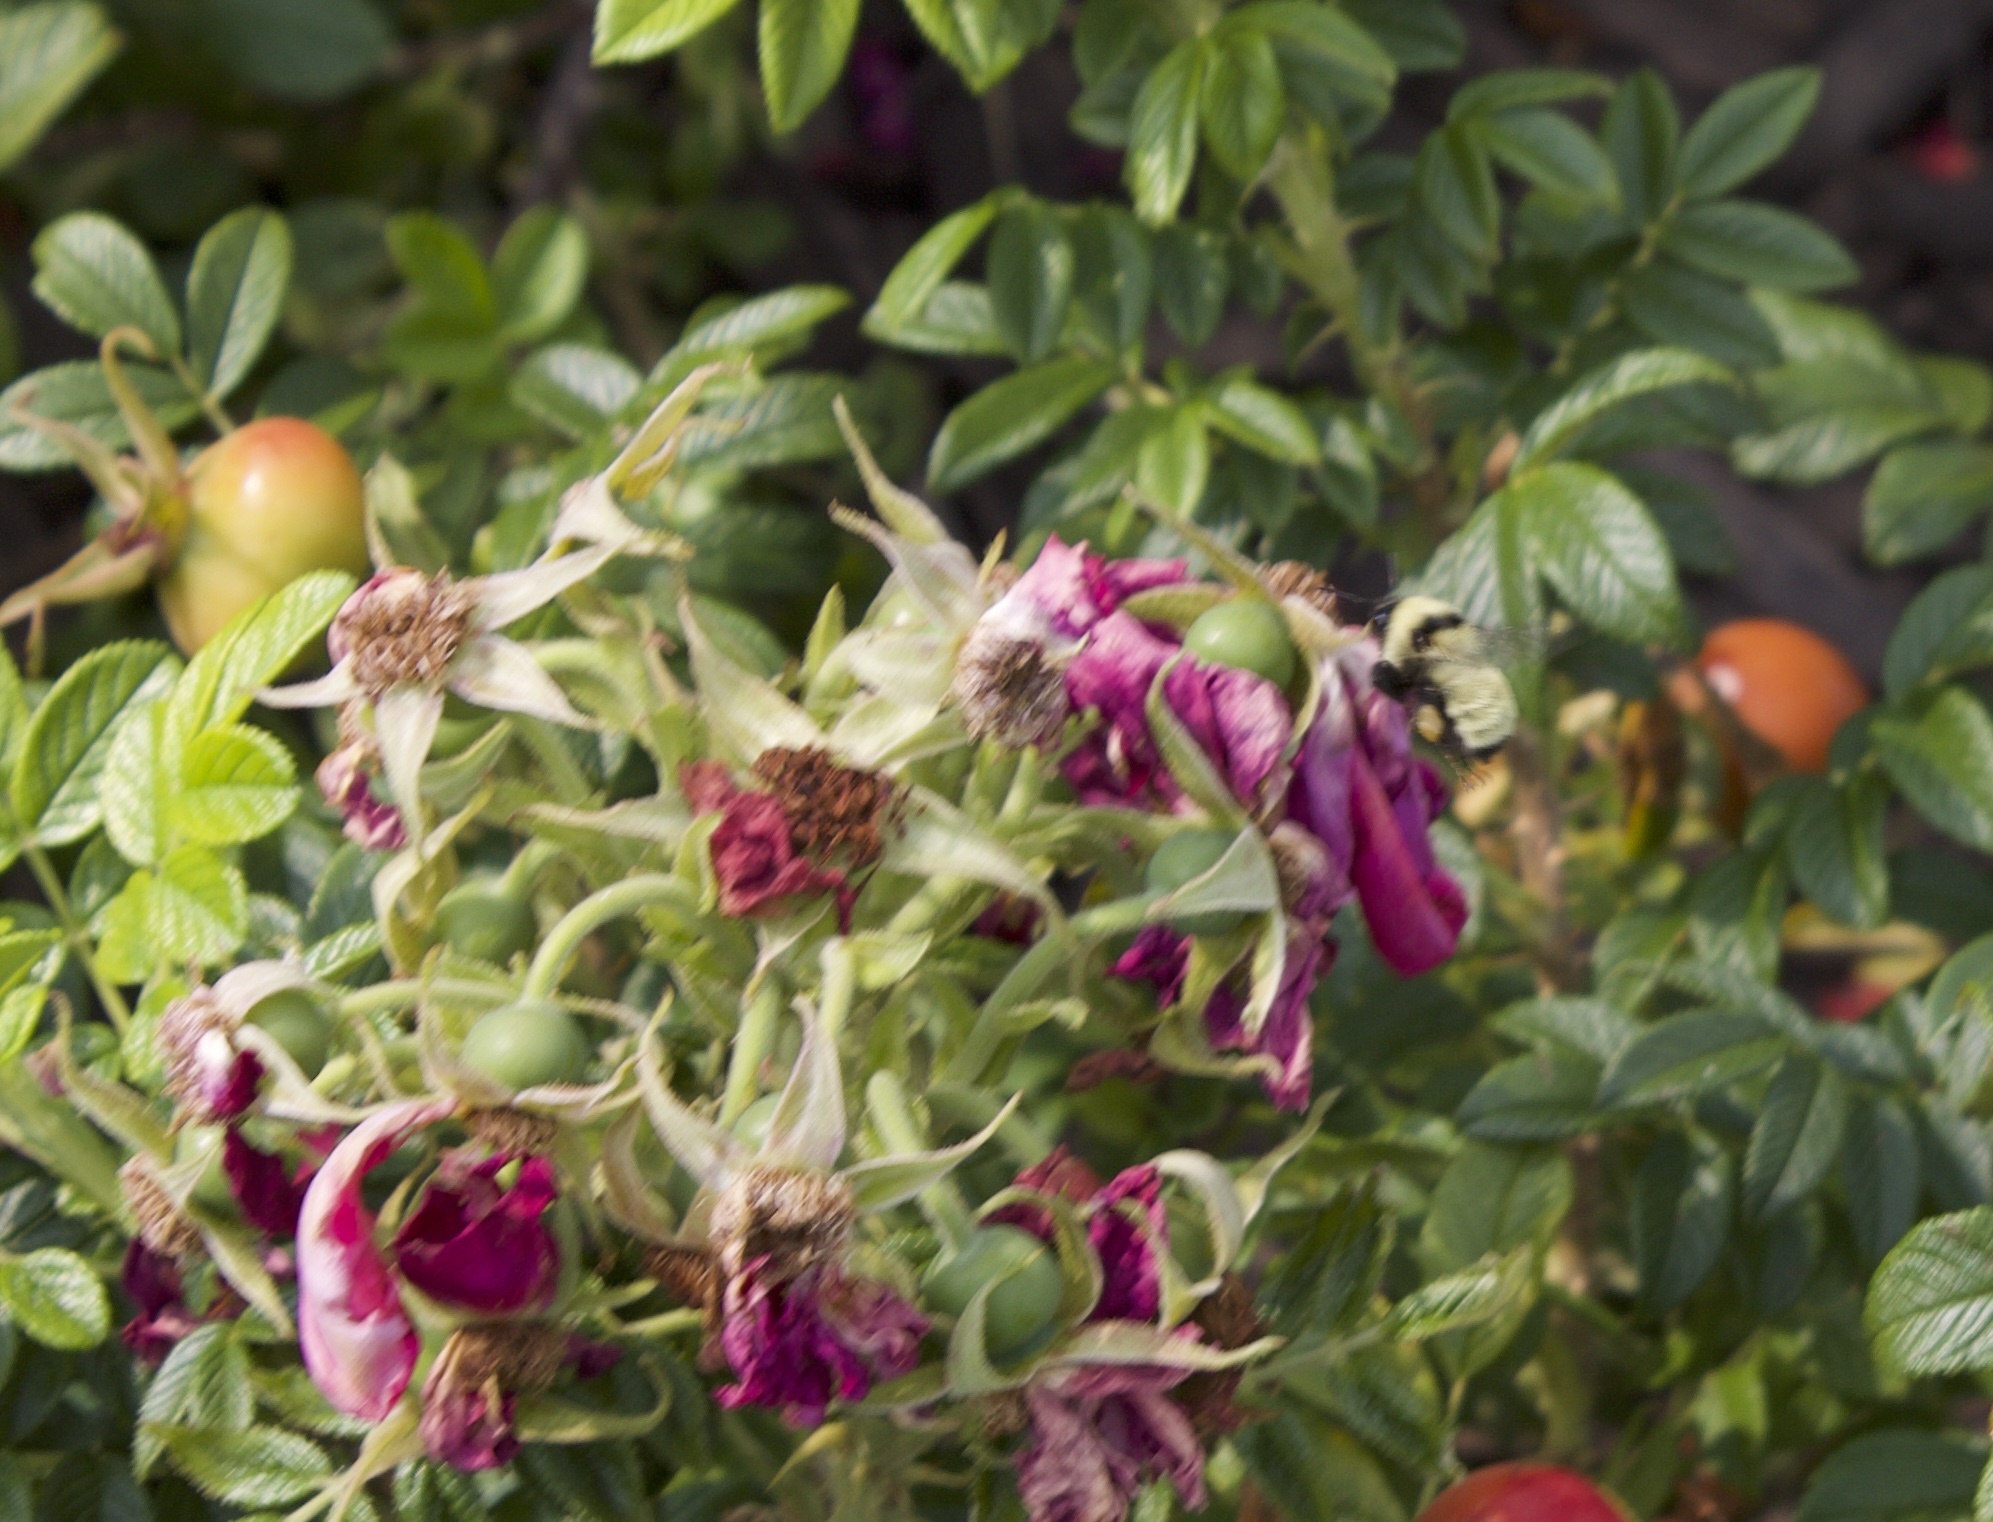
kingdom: Animalia
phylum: Arthropoda
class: Insecta
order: Hymenoptera
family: Apidae
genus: Bombus
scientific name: Bombus fervidus
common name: Yellow bumble bee
